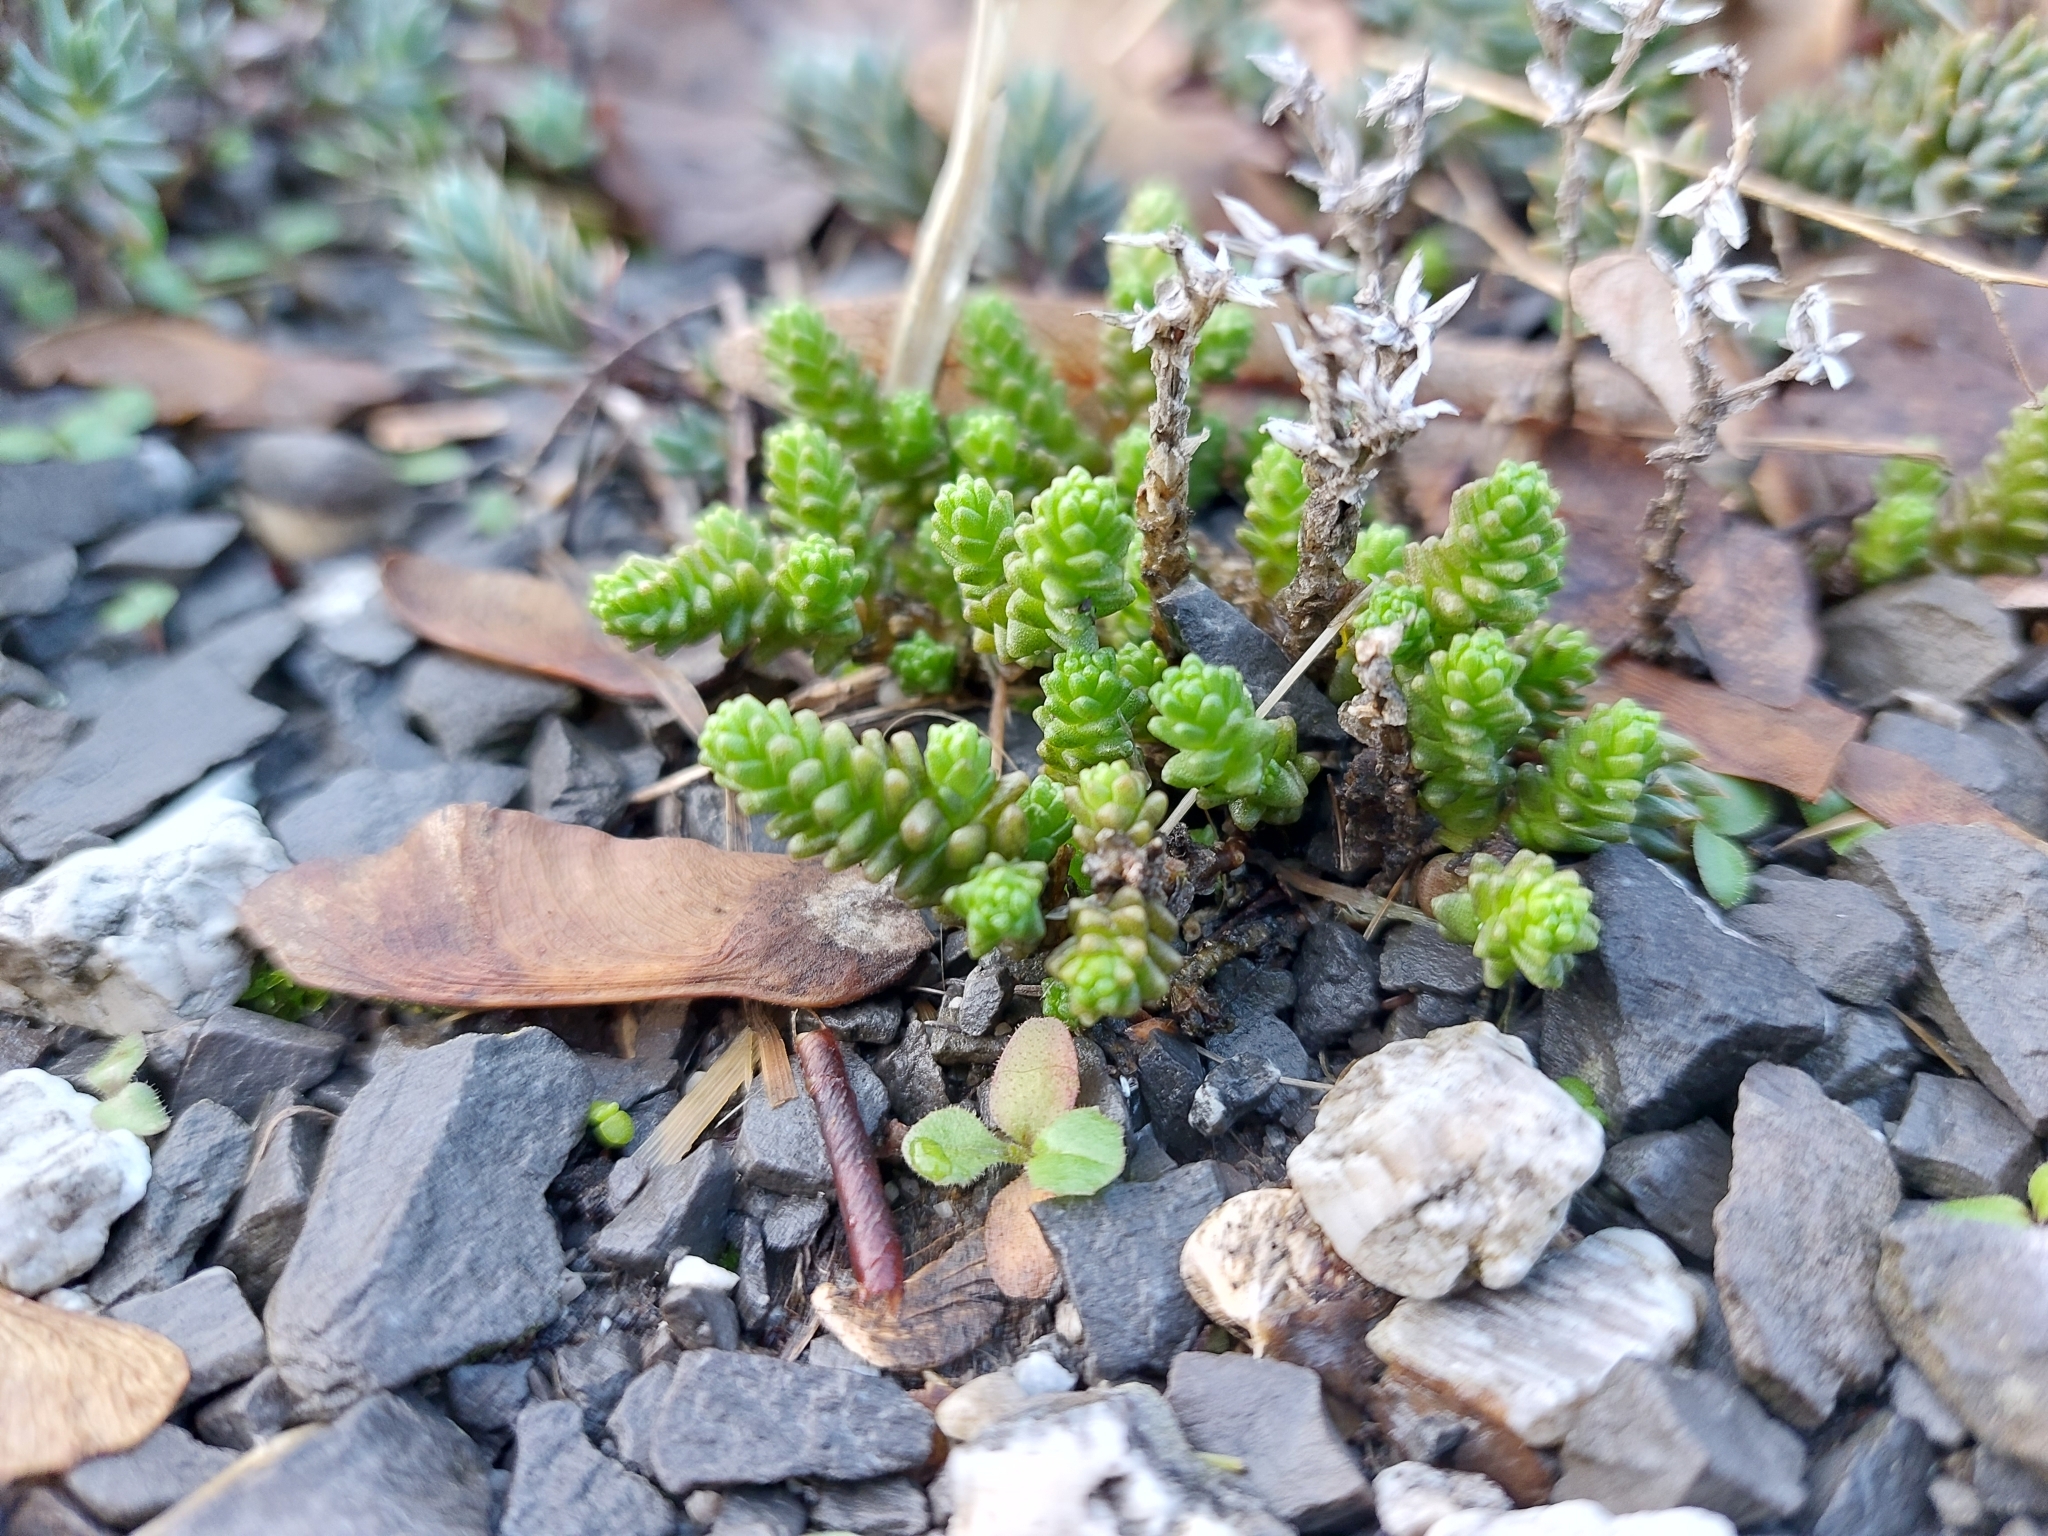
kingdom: Plantae
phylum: Tracheophyta
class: Magnoliopsida
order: Saxifragales
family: Crassulaceae
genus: Sedum
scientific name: Sedum acre
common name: Biting stonecrop
